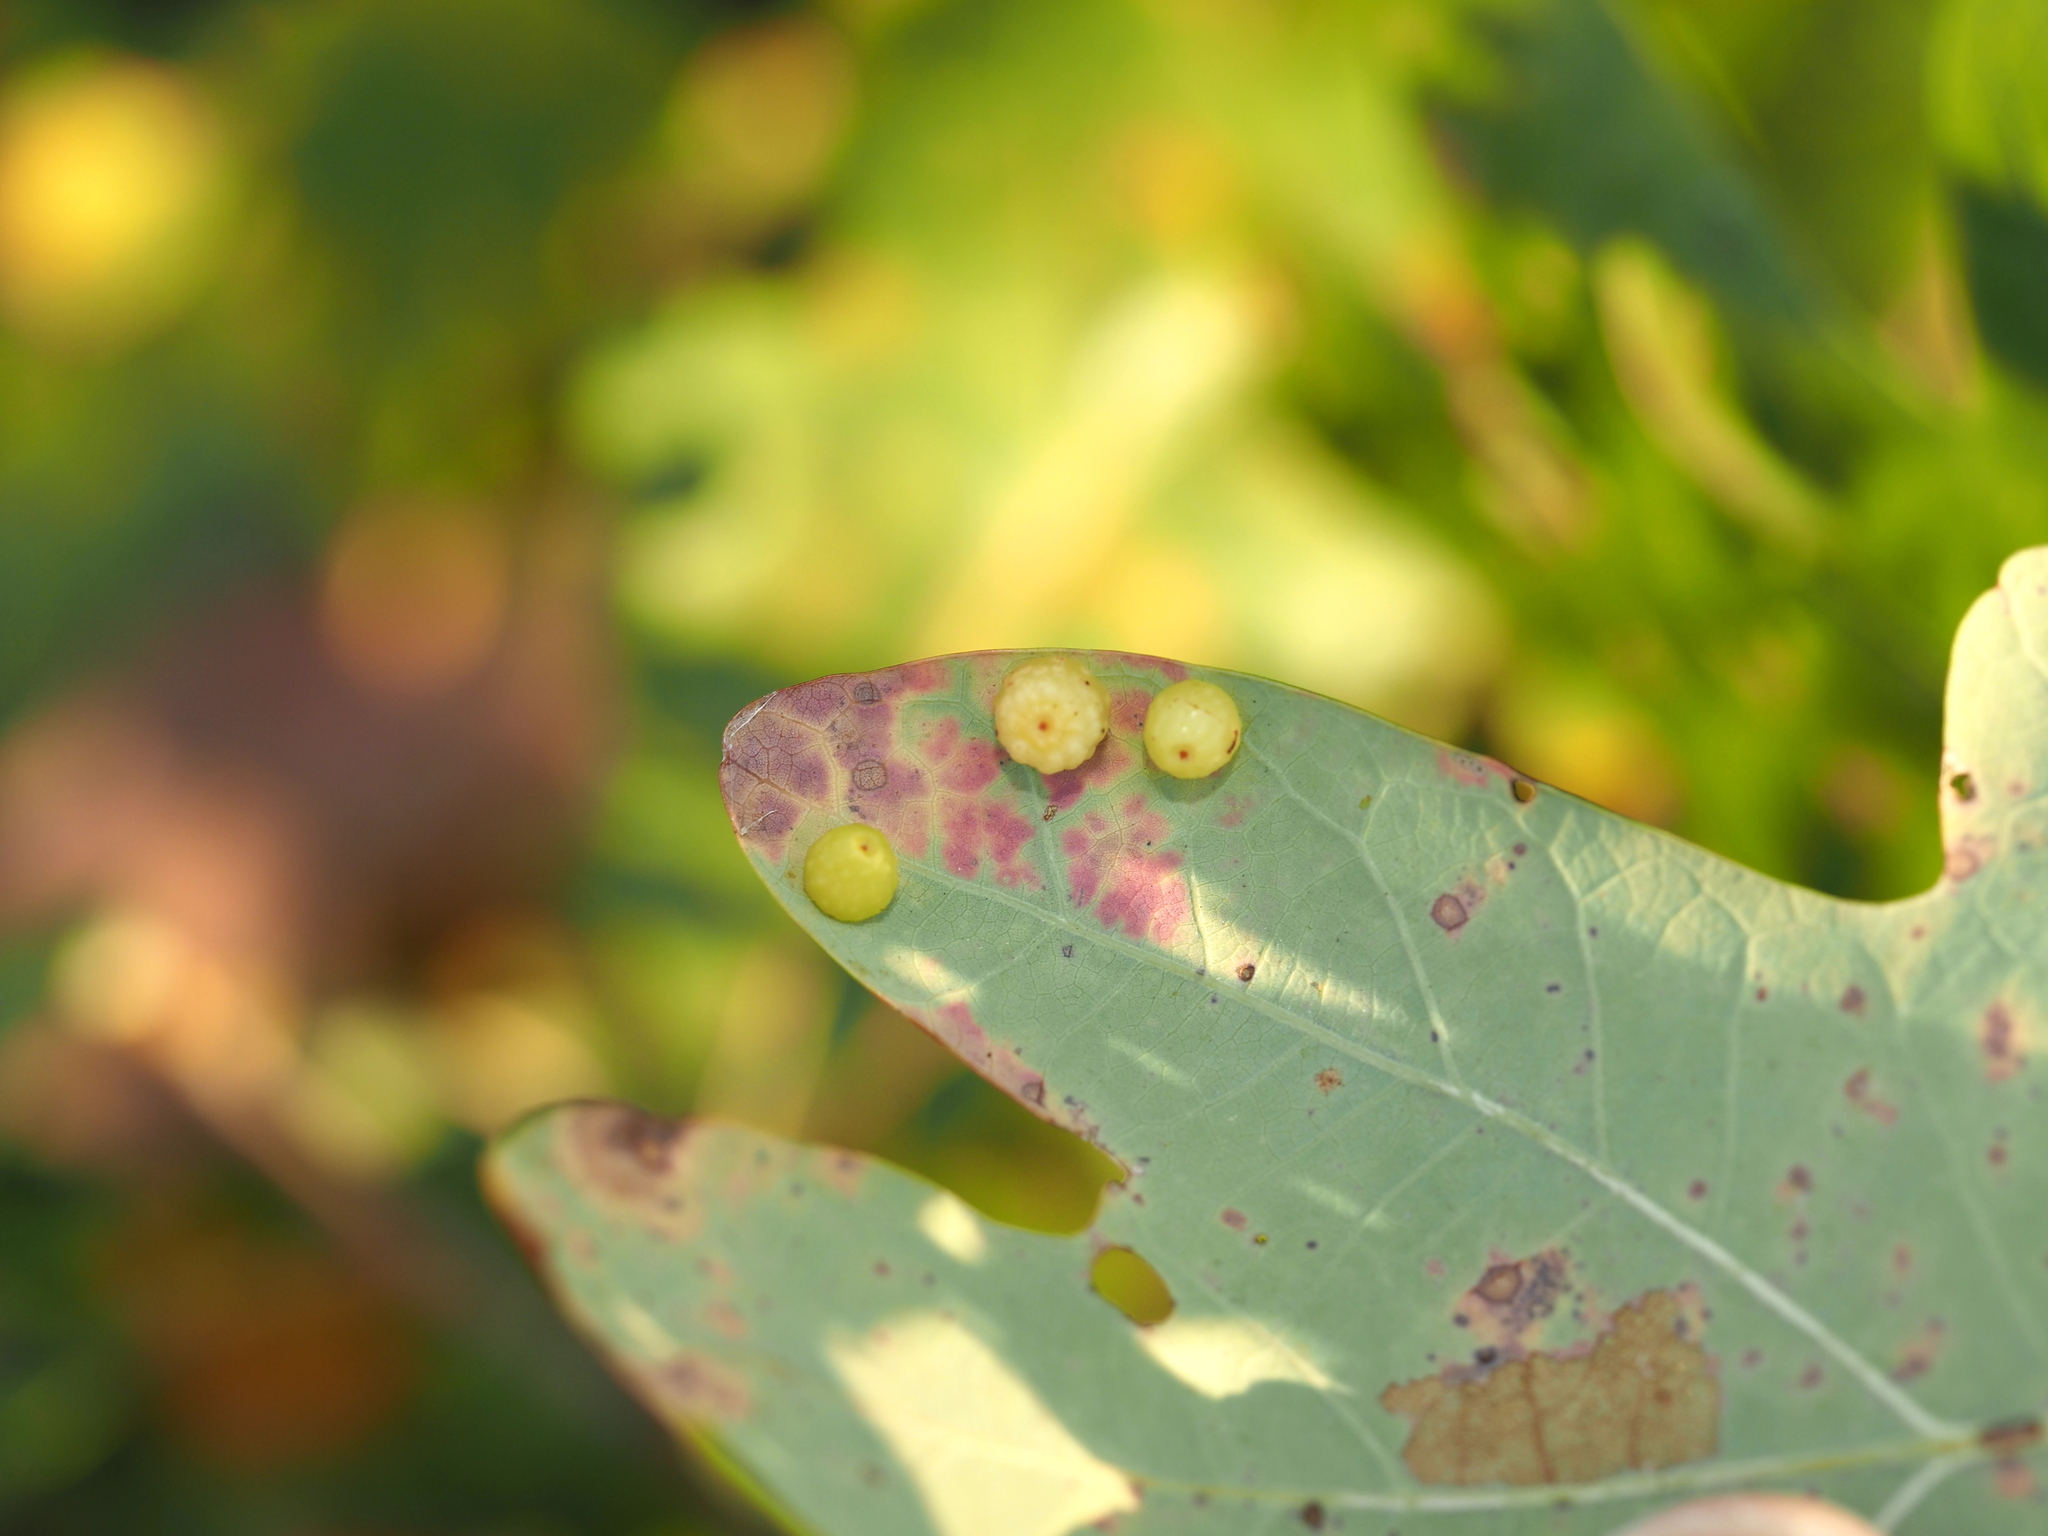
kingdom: Animalia
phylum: Arthropoda
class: Insecta
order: Hymenoptera
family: Cynipidae
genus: Andricus
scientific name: Andricus
